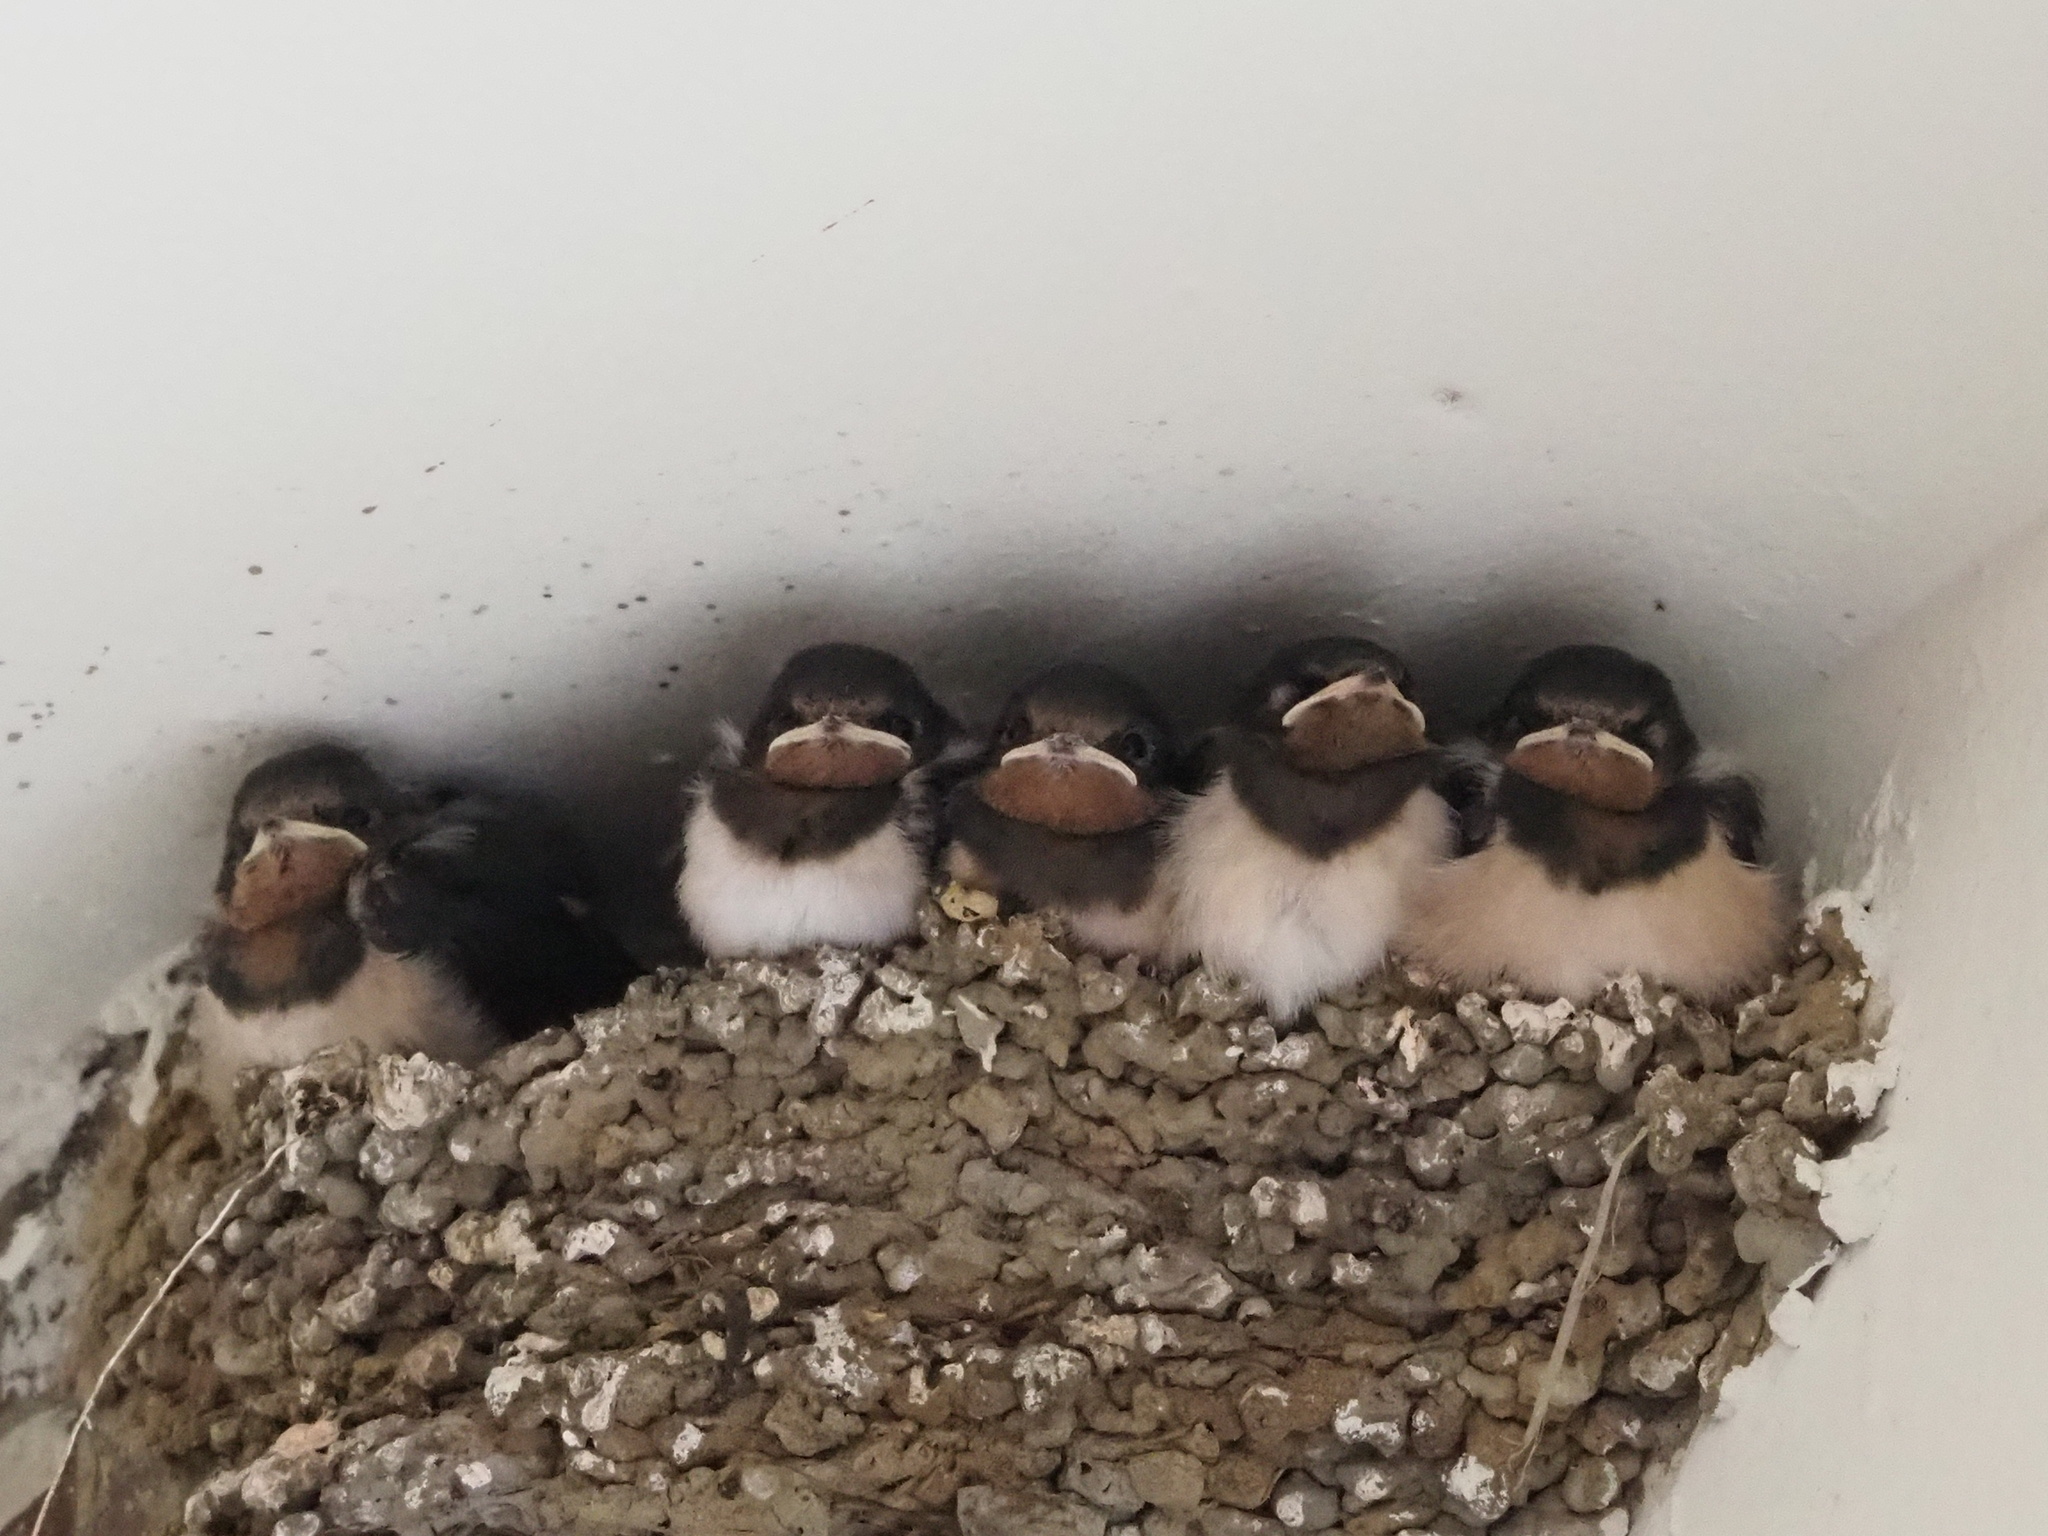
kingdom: Animalia
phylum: Chordata
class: Aves
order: Passeriformes
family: Hirundinidae
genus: Hirundo
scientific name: Hirundo rustica
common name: Barn swallow
